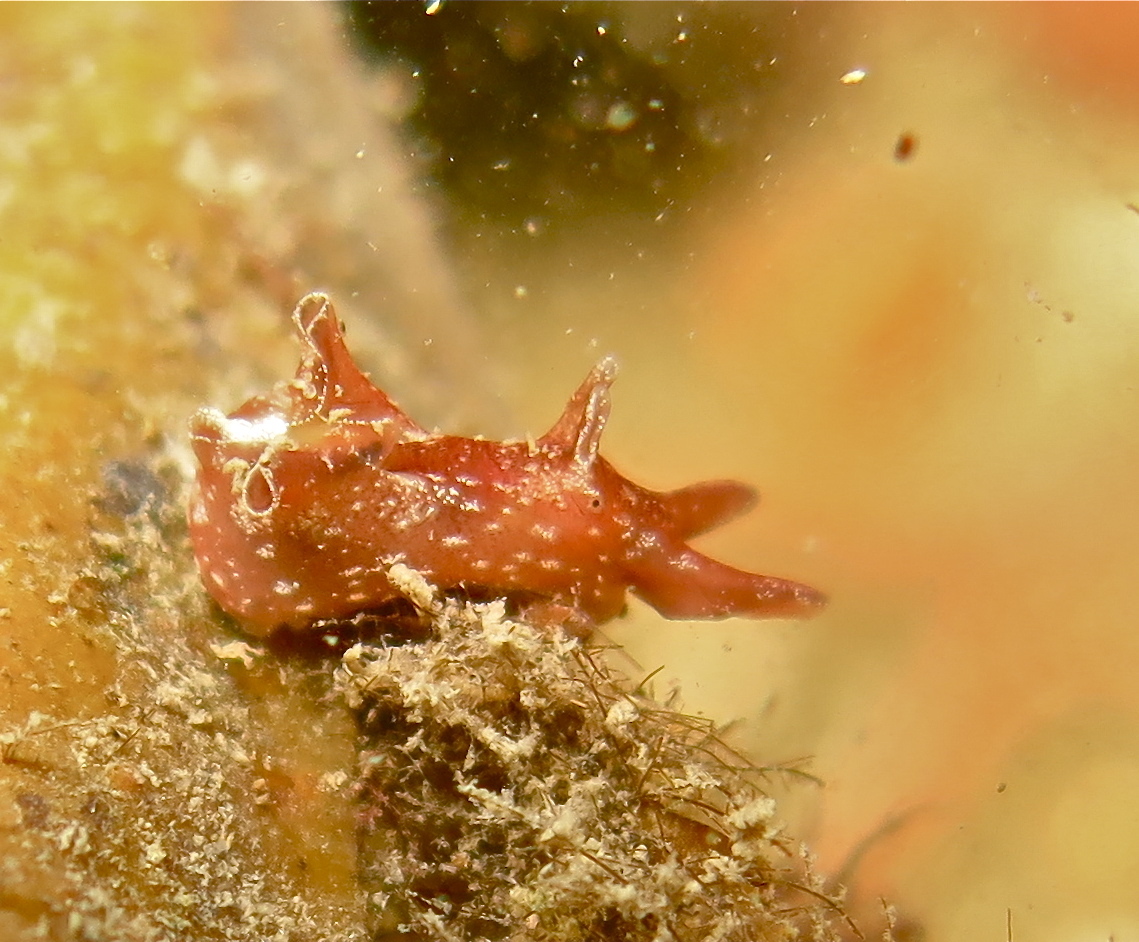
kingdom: Animalia
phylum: Mollusca
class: Gastropoda
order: Aplysiida
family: Aplysiidae
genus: Aplysia
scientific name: Aplysia punctata
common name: Common sea hare
